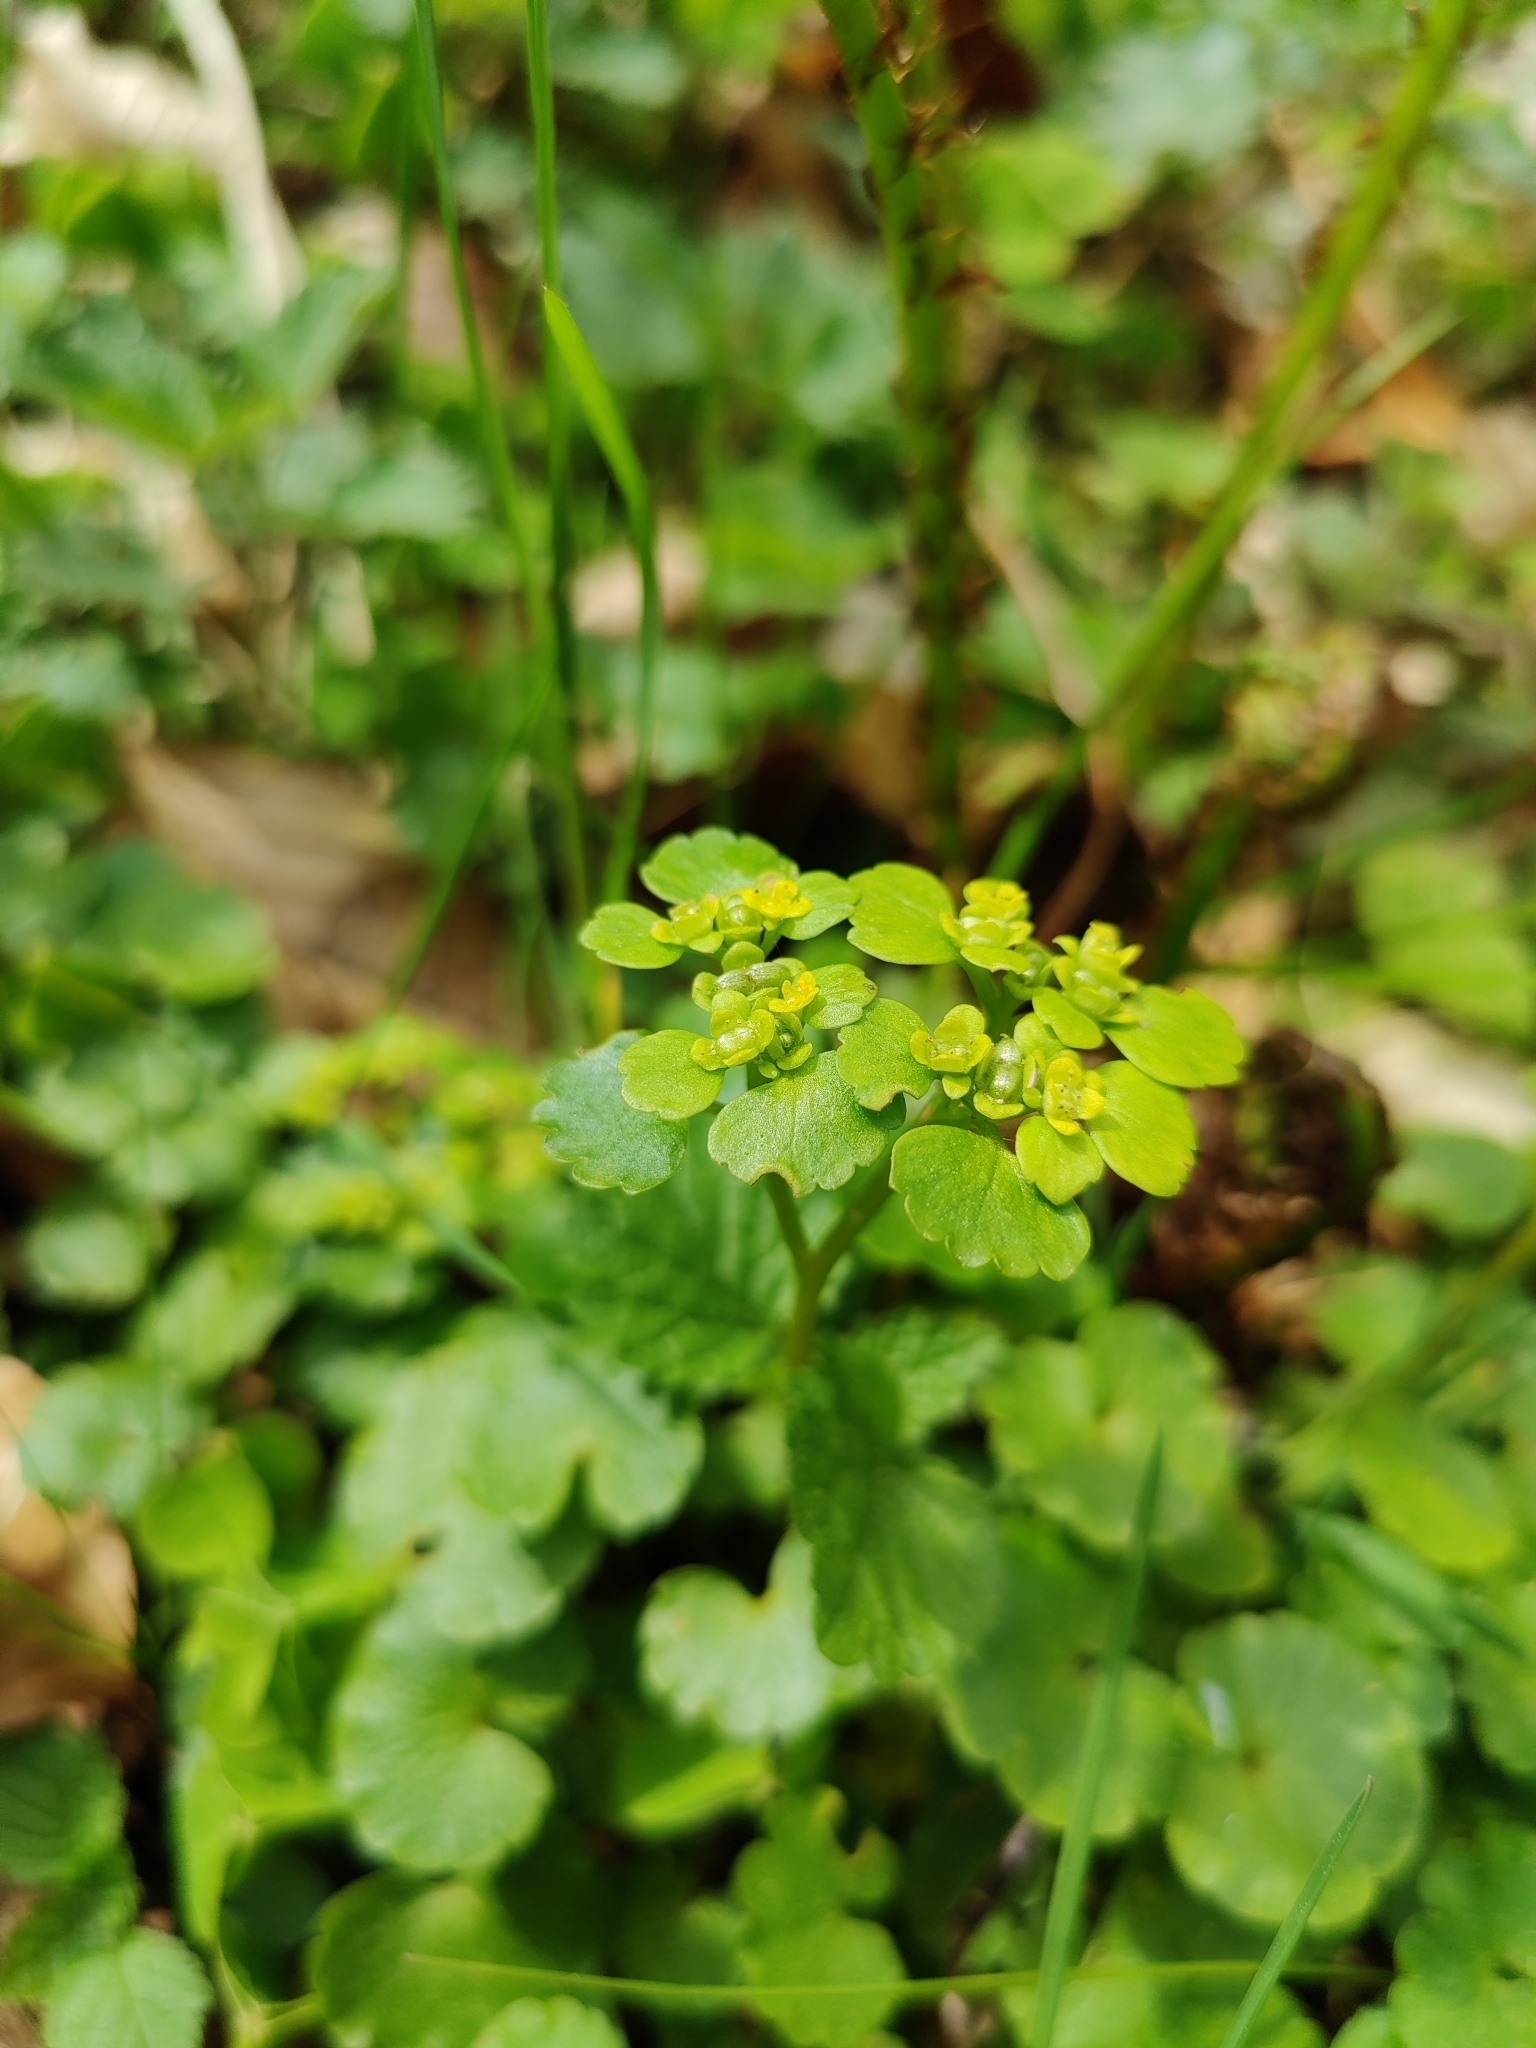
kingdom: Plantae
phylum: Tracheophyta
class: Magnoliopsida
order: Saxifragales
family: Saxifragaceae
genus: Chrysosplenium
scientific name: Chrysosplenium alternifolium
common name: Alternate-leaved golden-saxifrage
